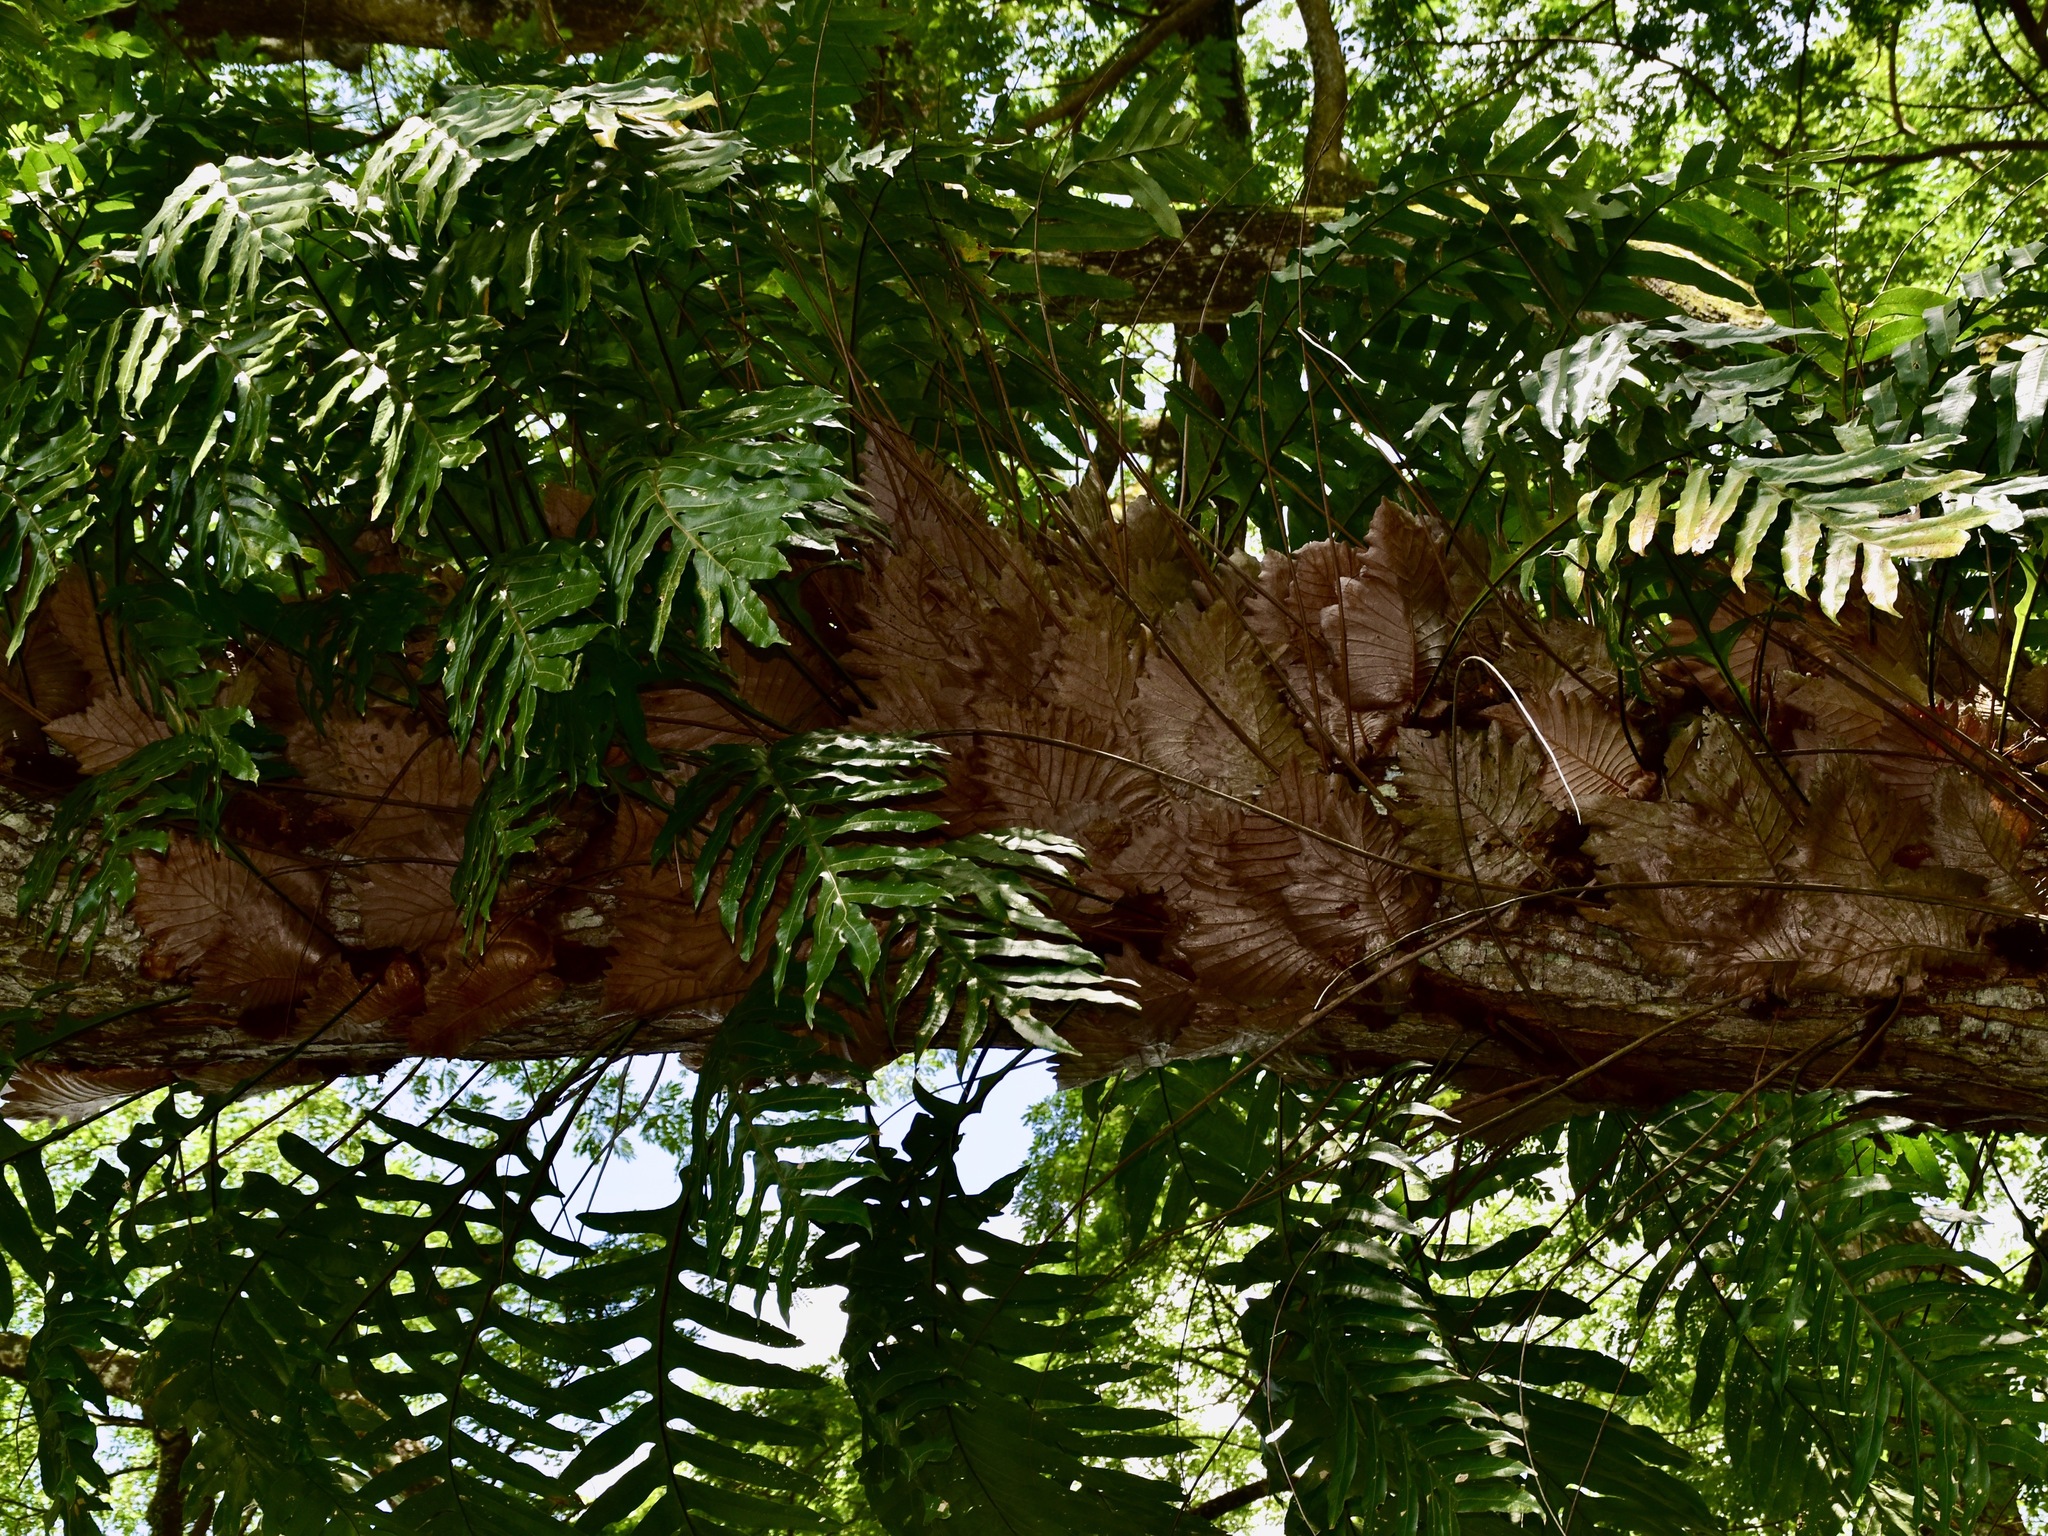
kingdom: Plantae
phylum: Tracheophyta
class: Polypodiopsida
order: Polypodiales
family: Polypodiaceae
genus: Drynaria
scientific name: Drynaria quercifolia
